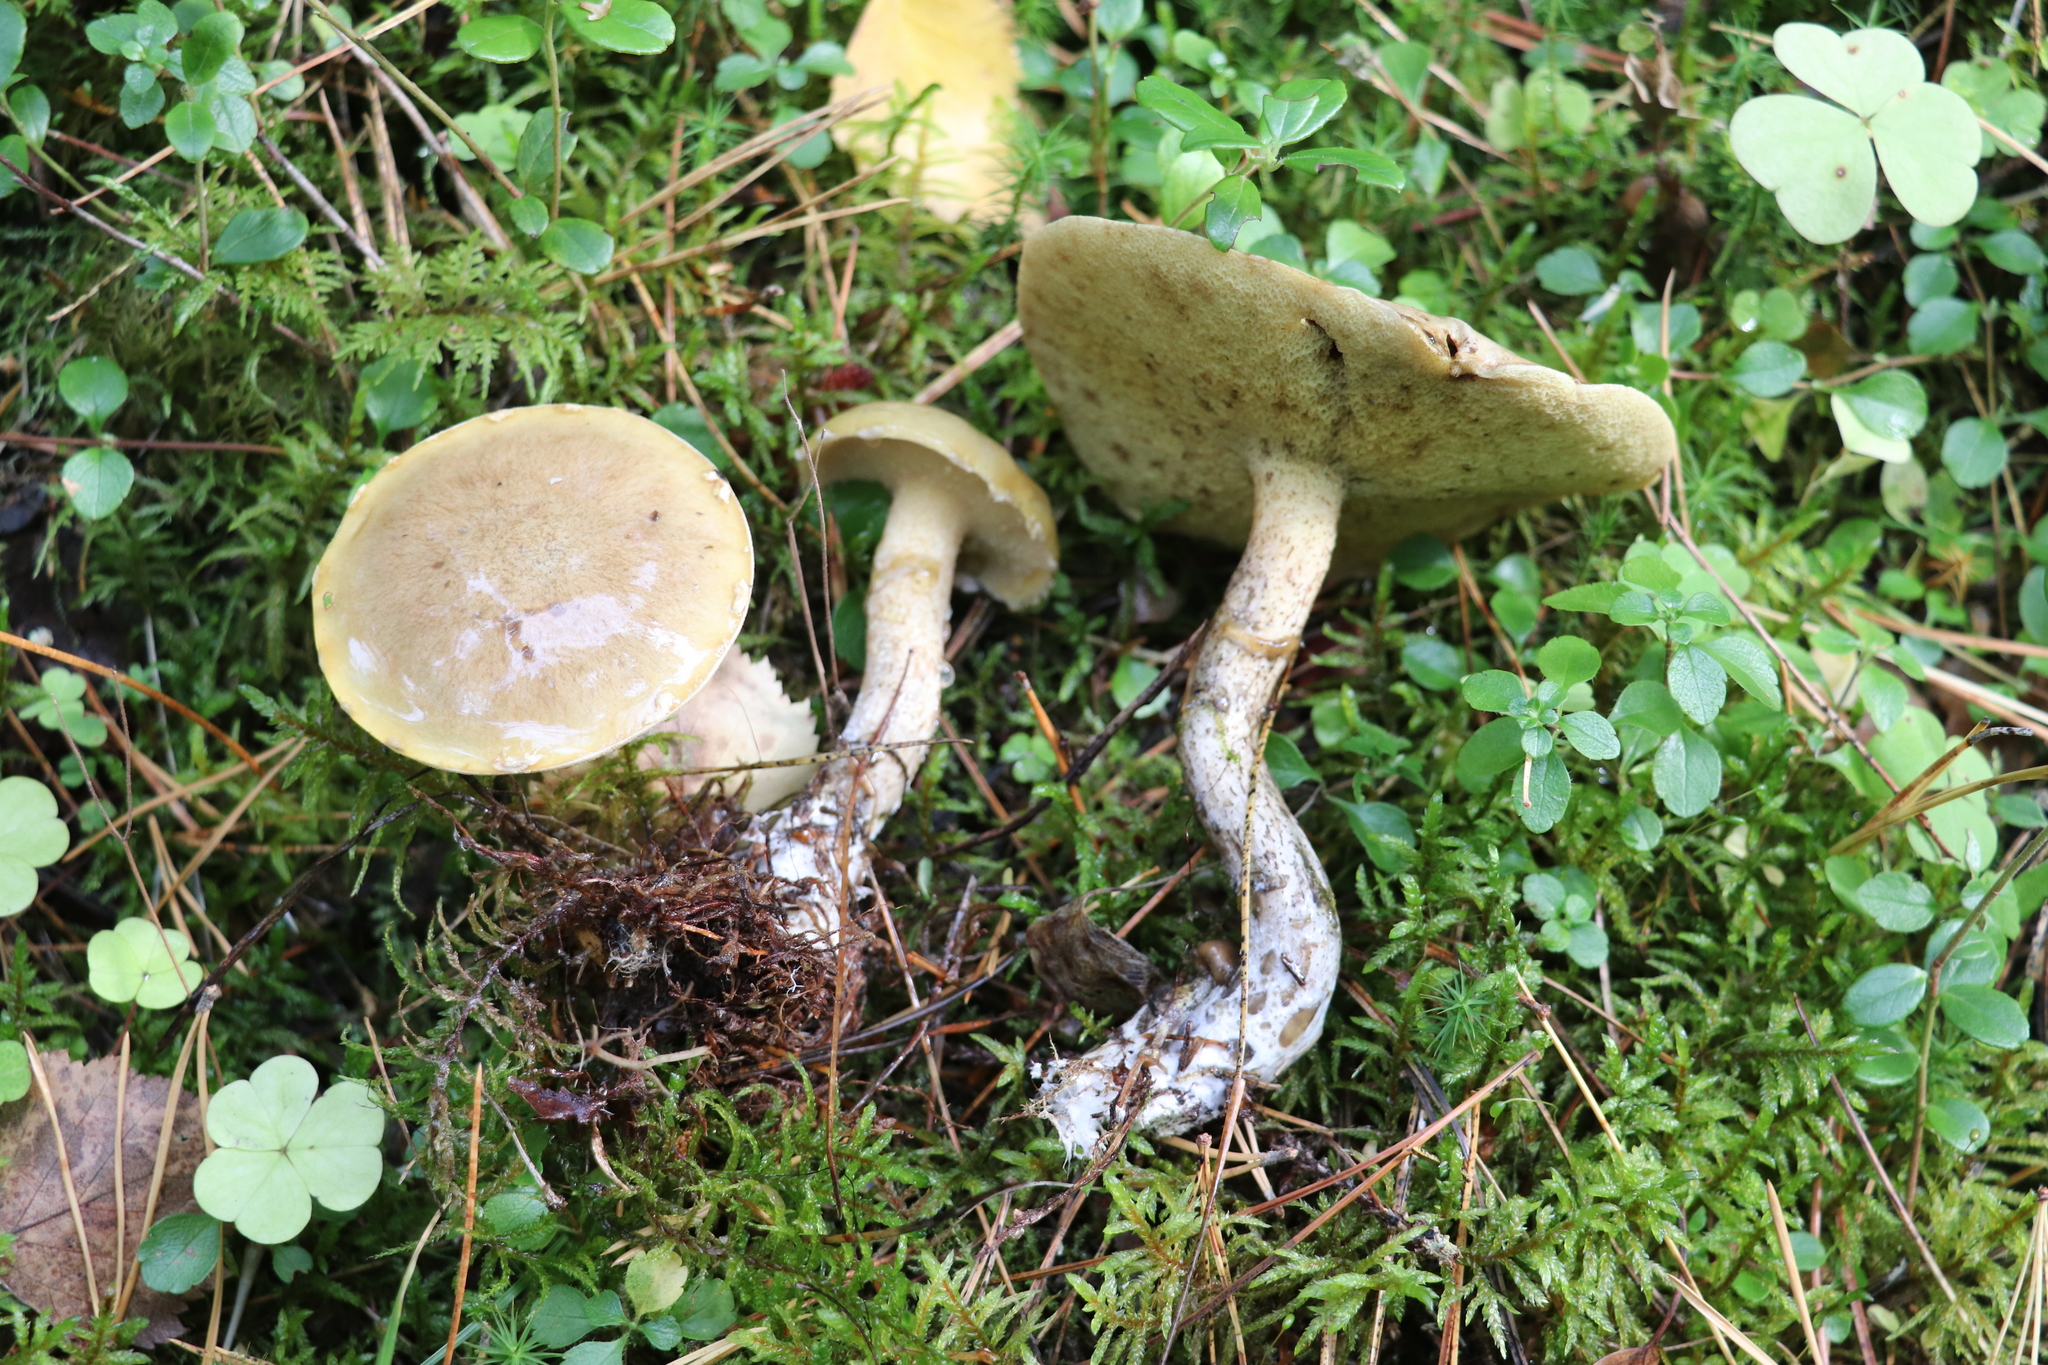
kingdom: Fungi
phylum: Basidiomycota
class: Agaricomycetes
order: Boletales
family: Suillaceae
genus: Suillus
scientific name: Suillus acidus
